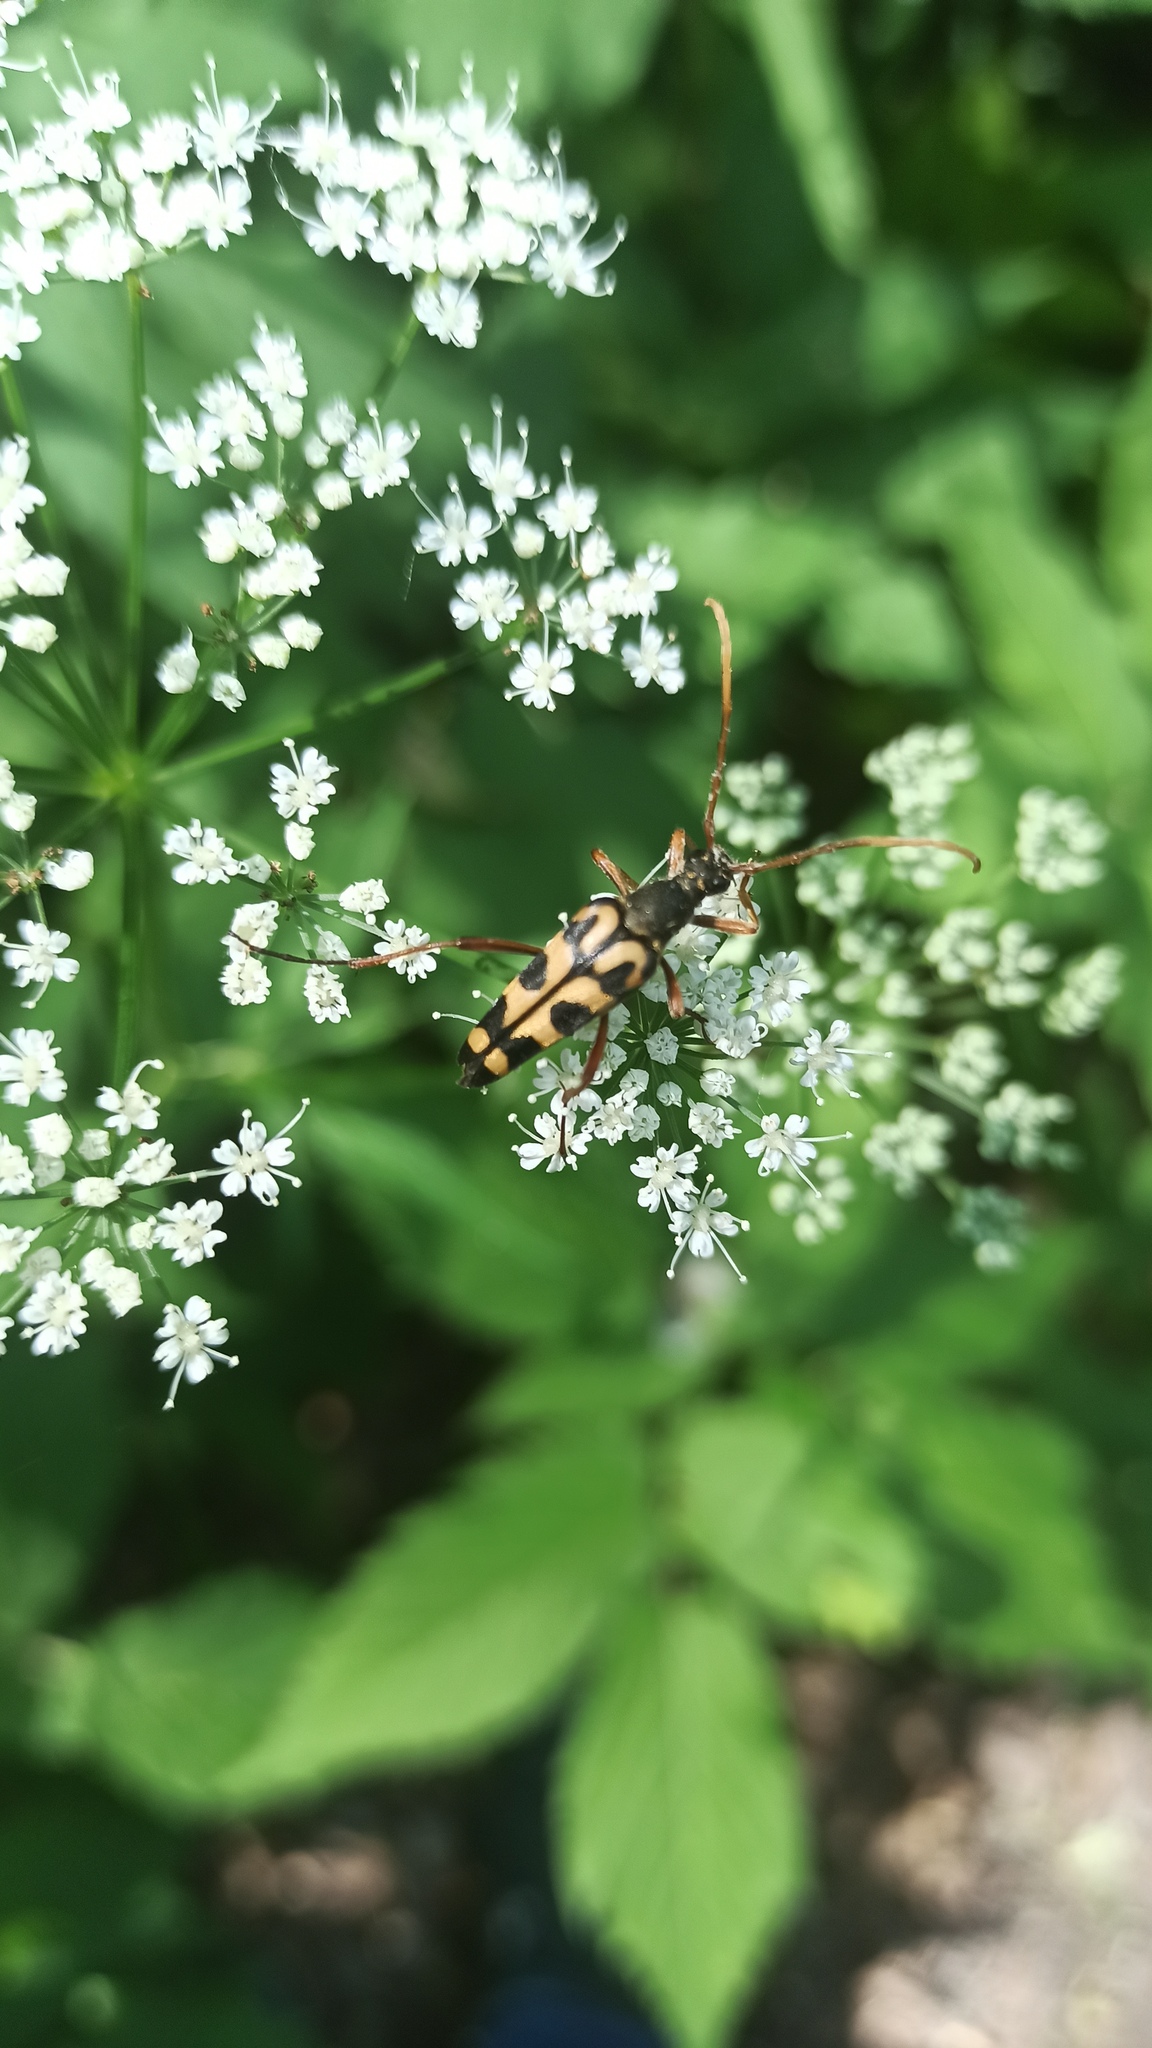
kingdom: Animalia
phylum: Arthropoda
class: Insecta
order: Coleoptera
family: Cerambycidae
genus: Leptura
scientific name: Leptura annularis
